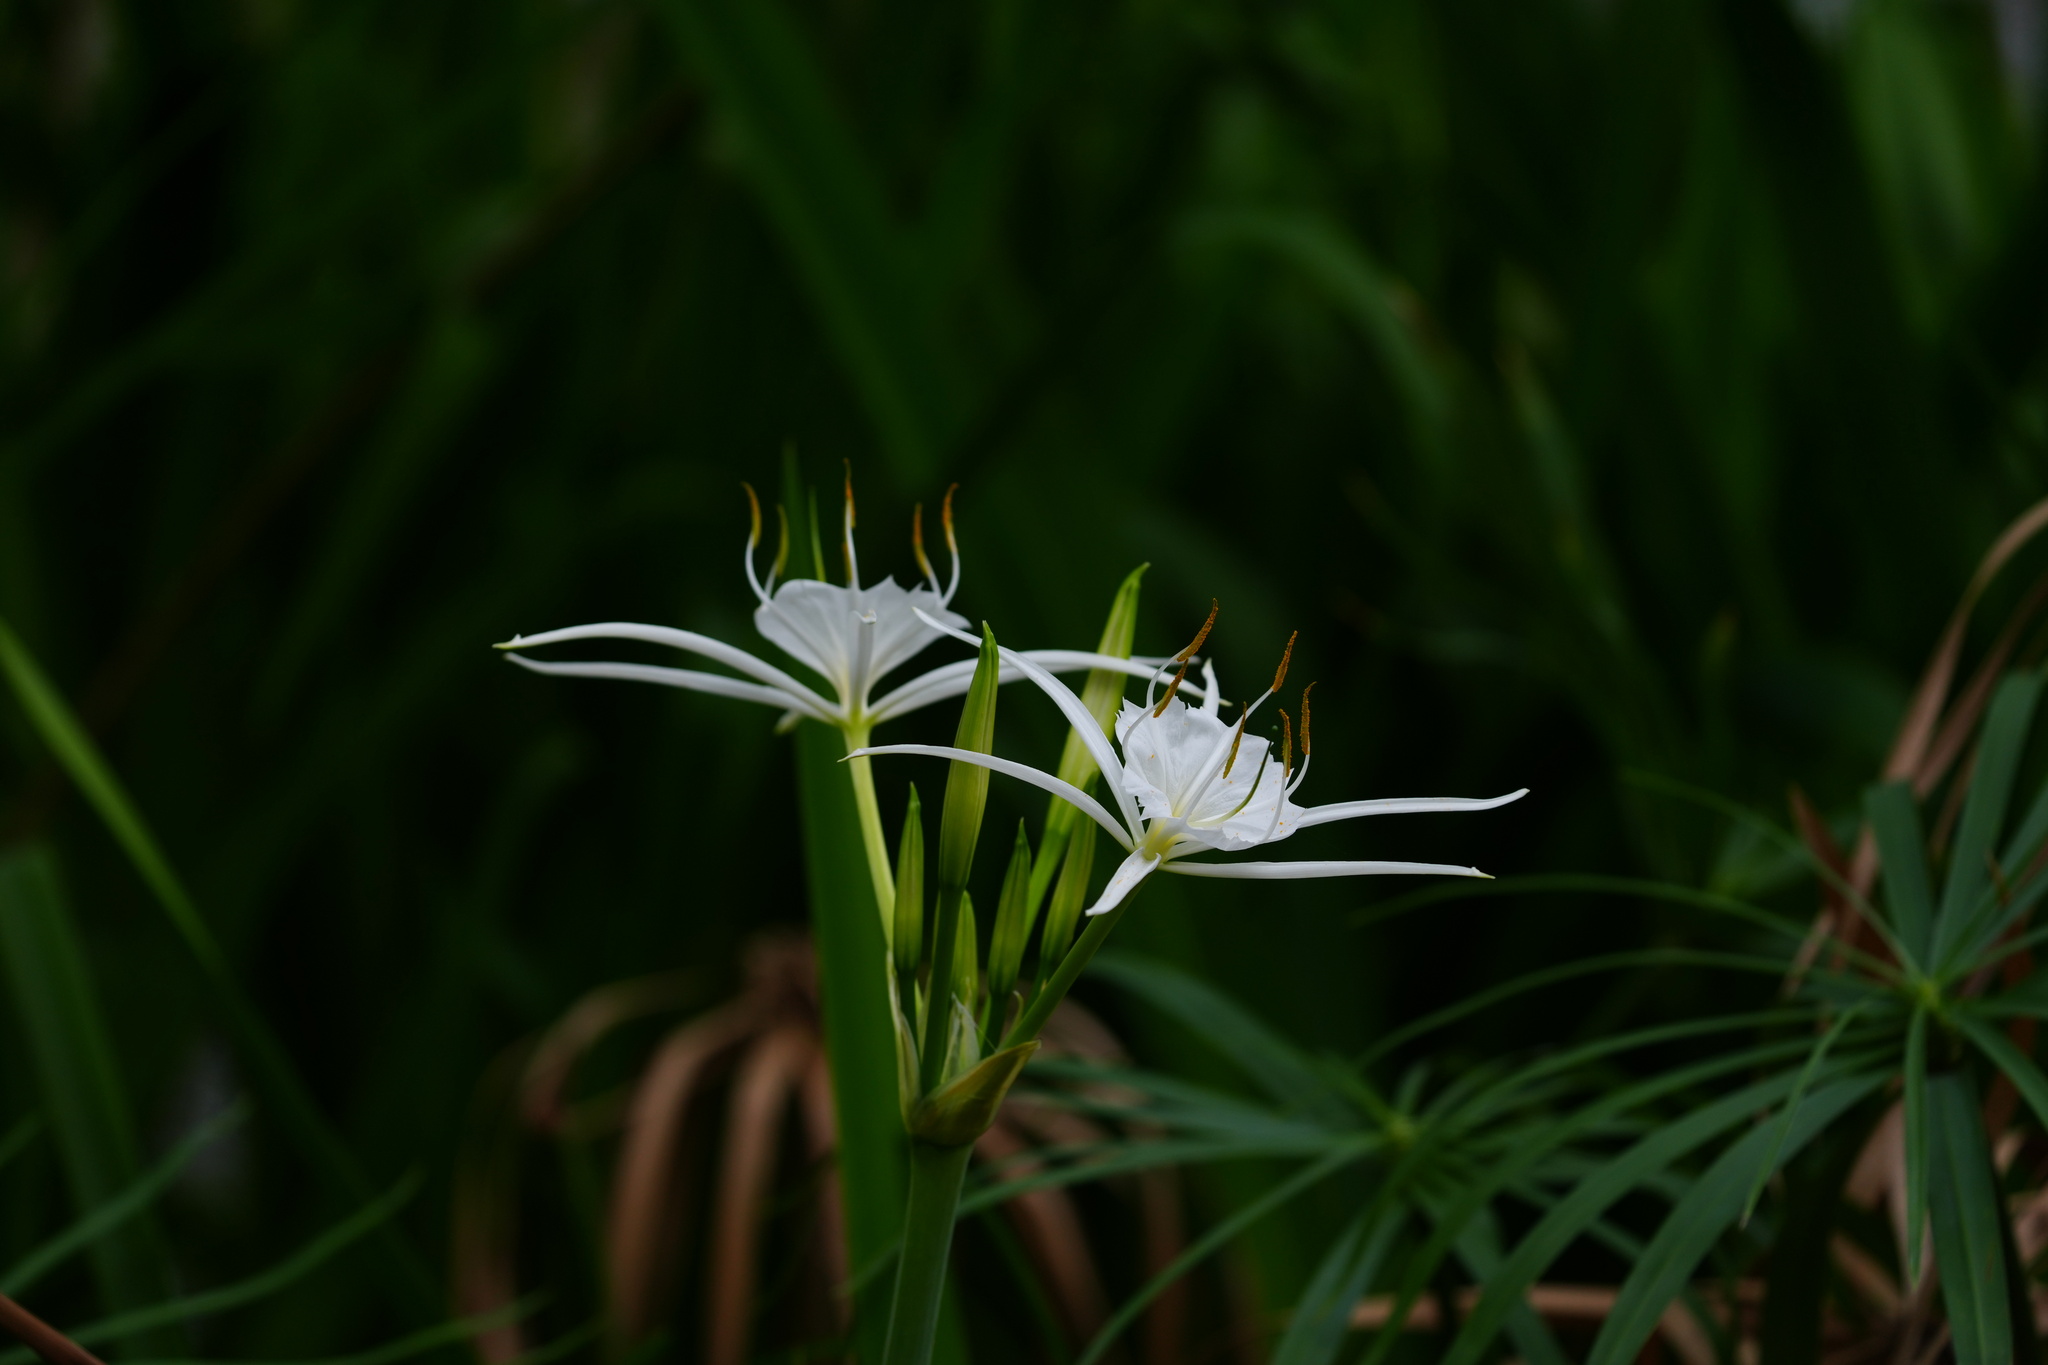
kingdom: Plantae
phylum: Tracheophyta
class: Liliopsida
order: Asparagales
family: Amaryllidaceae
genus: Hymenocallis
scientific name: Hymenocallis liriosme
